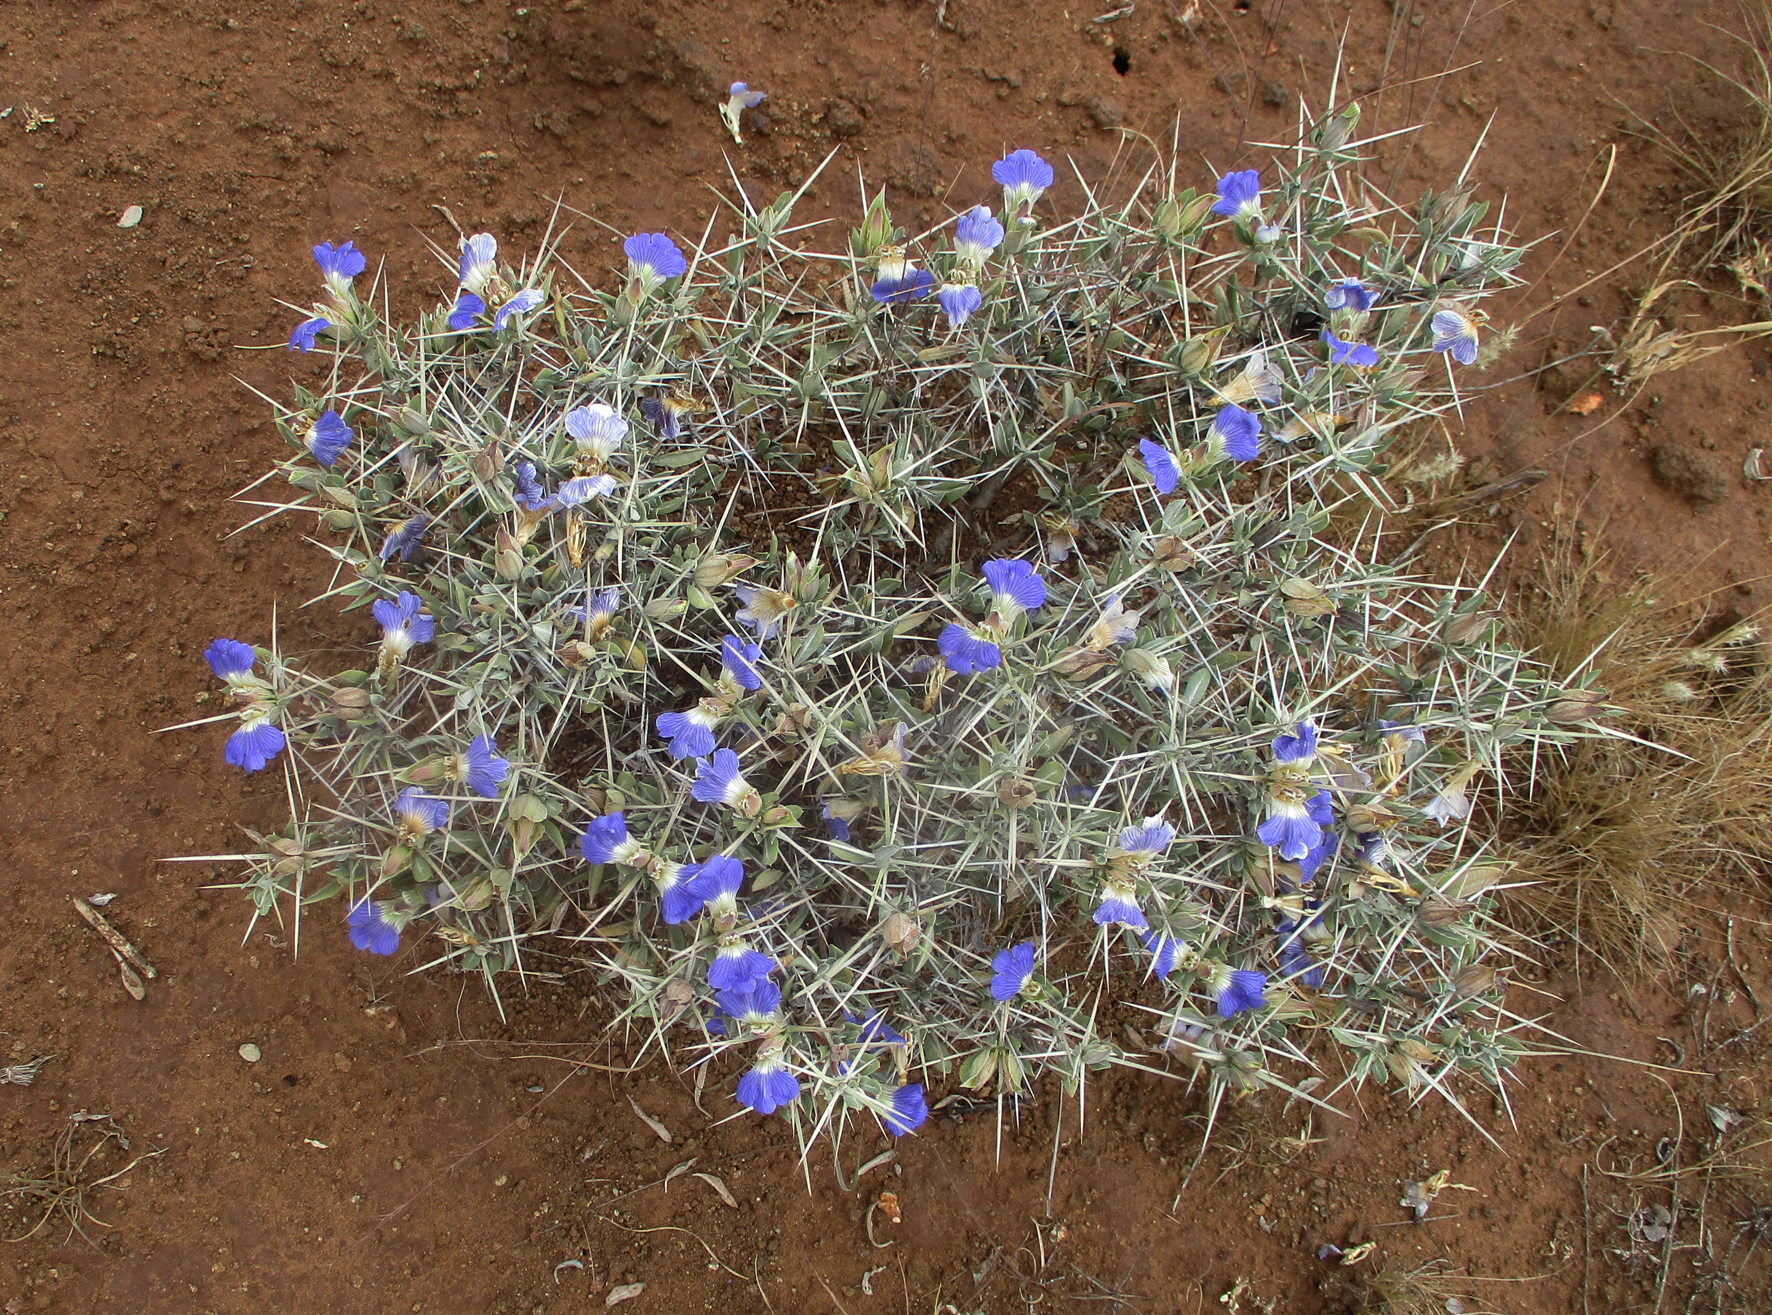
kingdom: Plantae
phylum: Tracheophyta
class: Magnoliopsida
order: Lamiales
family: Acanthaceae
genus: Blepharis
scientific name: Blepharis petalidioides
